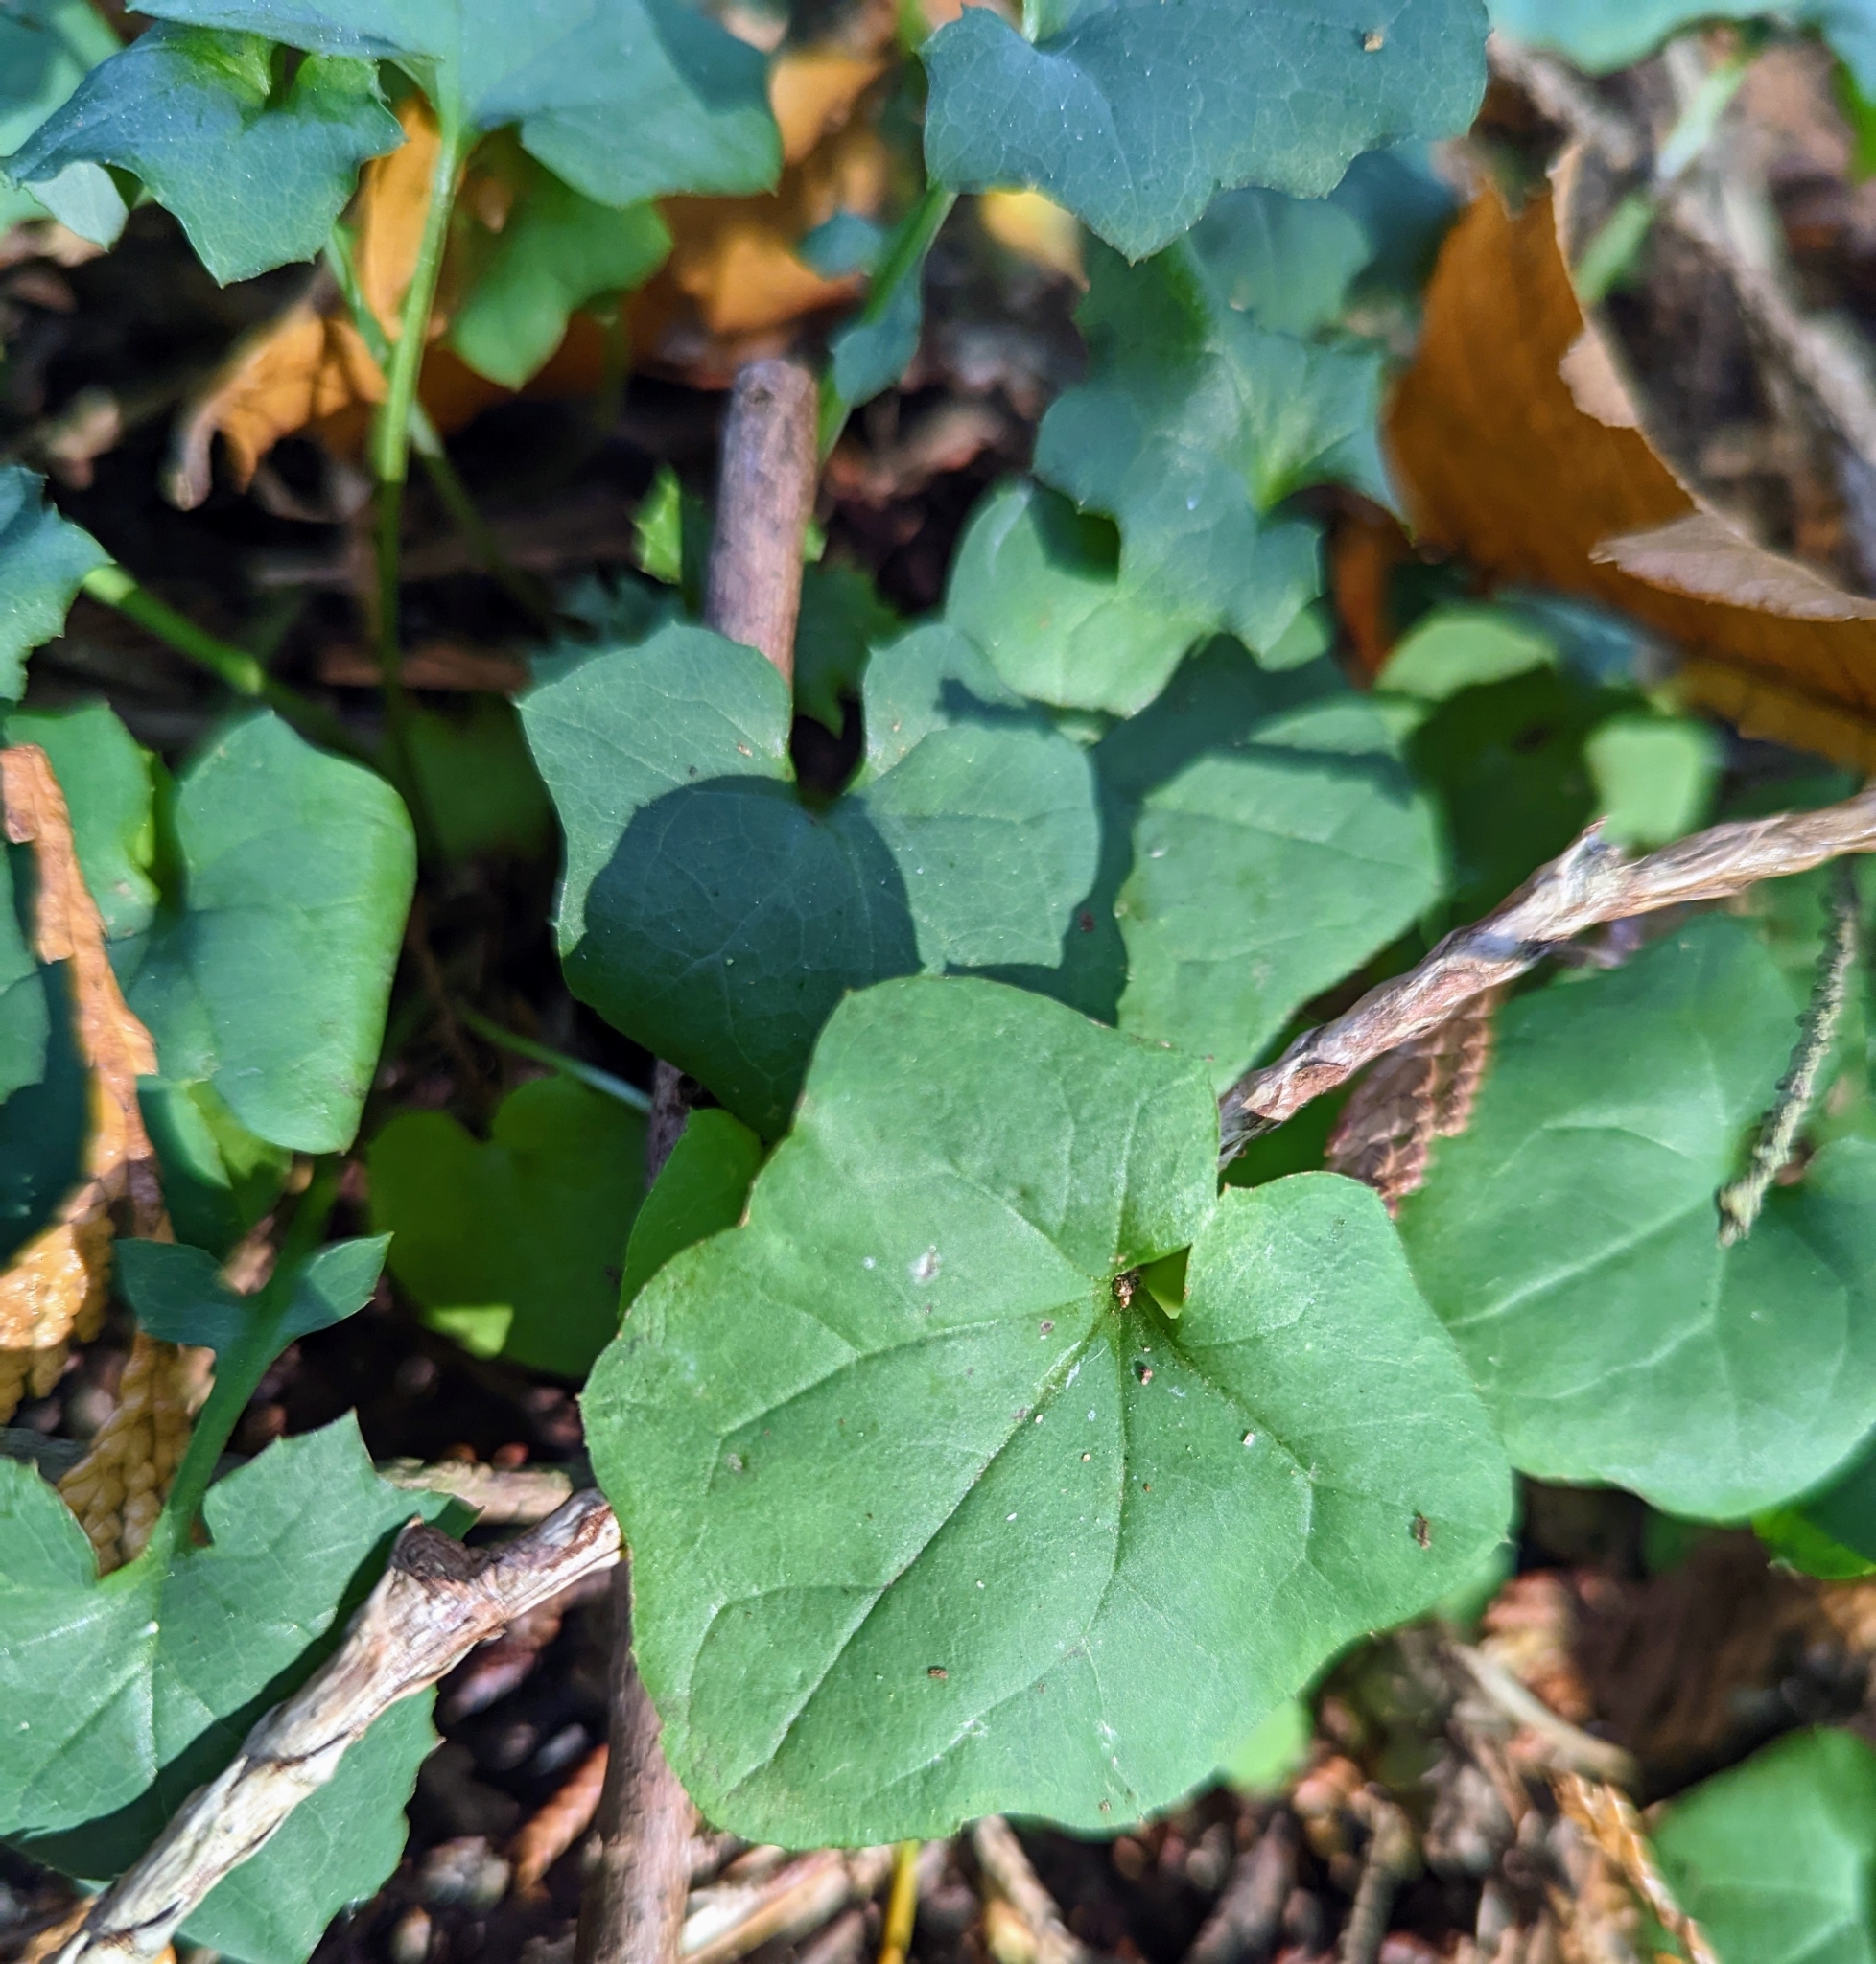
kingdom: Plantae
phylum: Tracheophyta
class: Magnoliopsida
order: Asterales
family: Asteraceae
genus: Mycelis
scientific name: Mycelis muralis
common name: Wall lettuce
